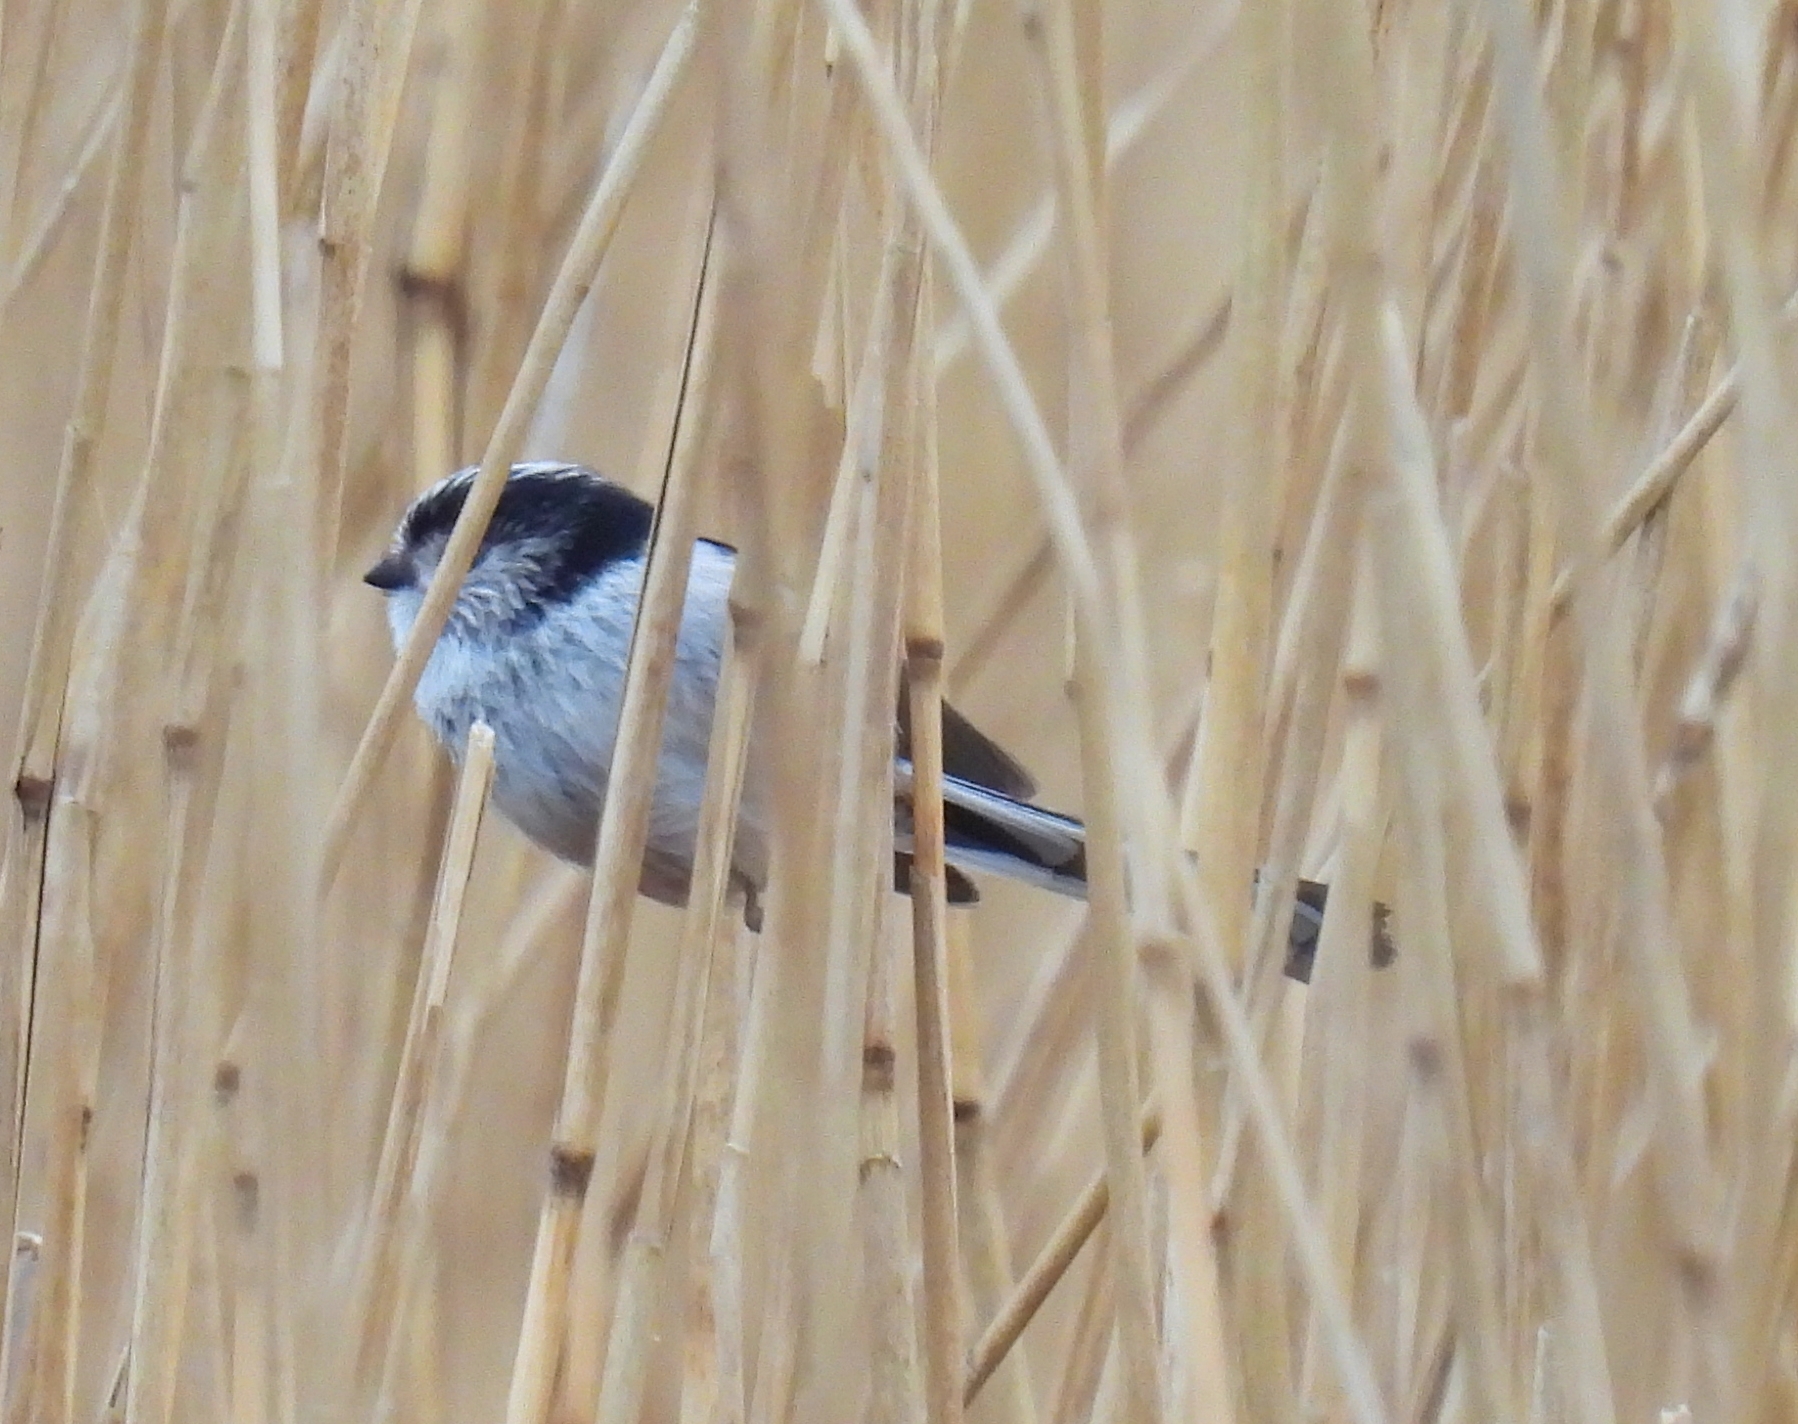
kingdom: Animalia
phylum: Chordata
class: Aves
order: Passeriformes
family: Aegithalidae
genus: Aegithalos
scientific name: Aegithalos caudatus
